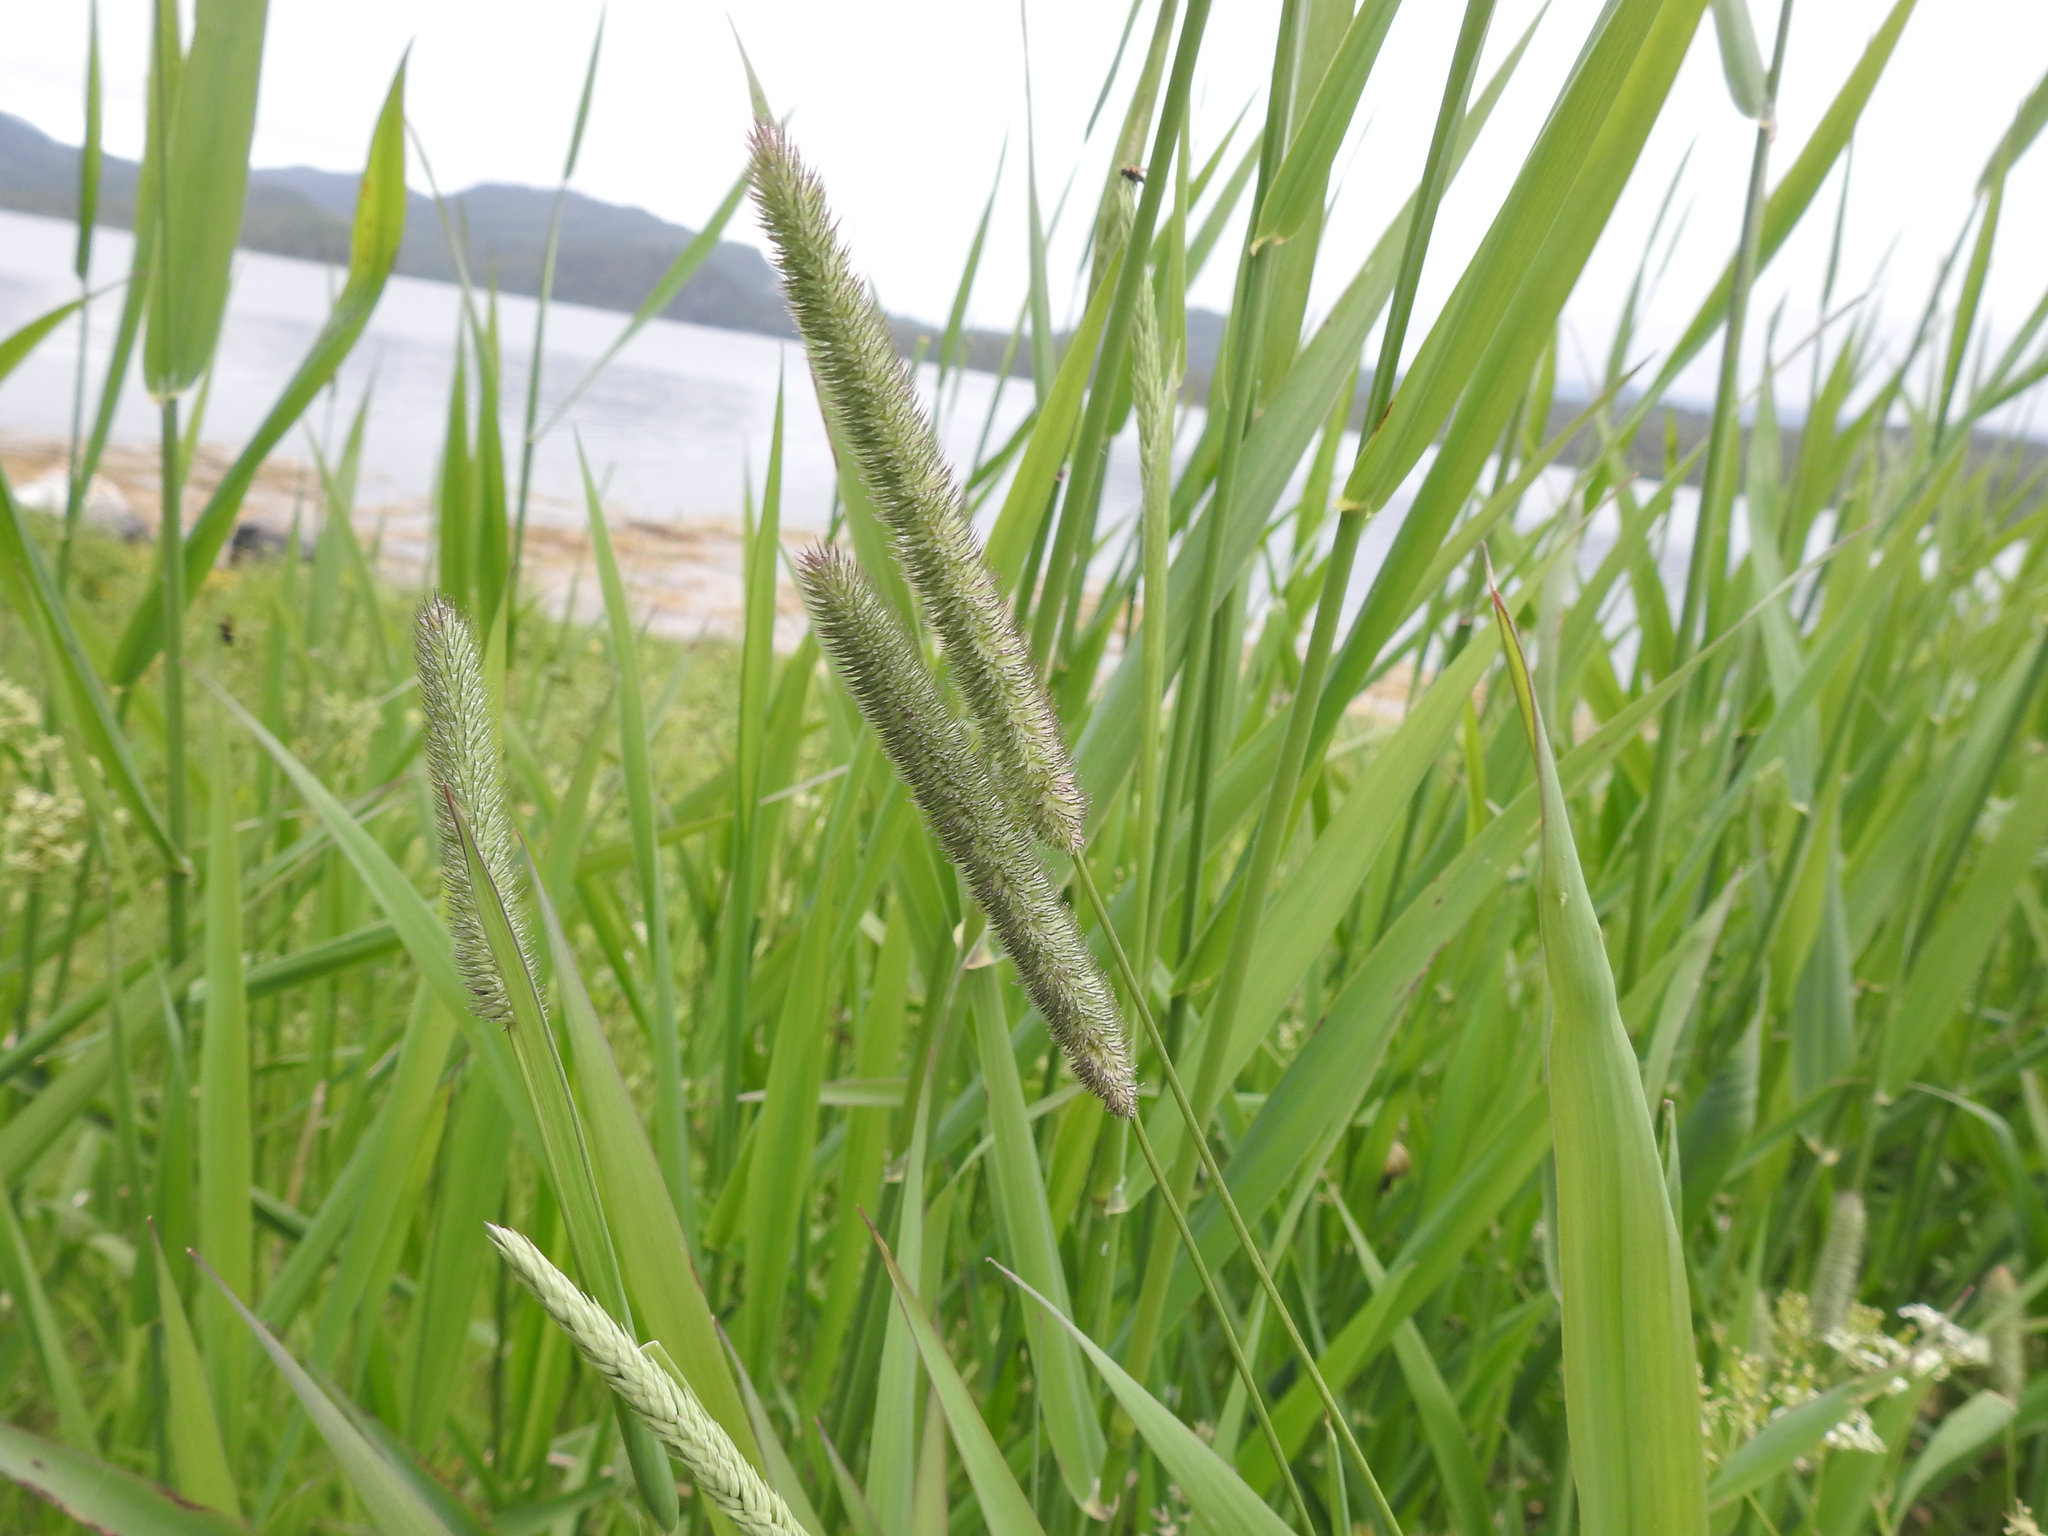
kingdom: Plantae
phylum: Tracheophyta
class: Liliopsida
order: Poales
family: Poaceae
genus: Phleum
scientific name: Phleum pratense
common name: Timothy grass
